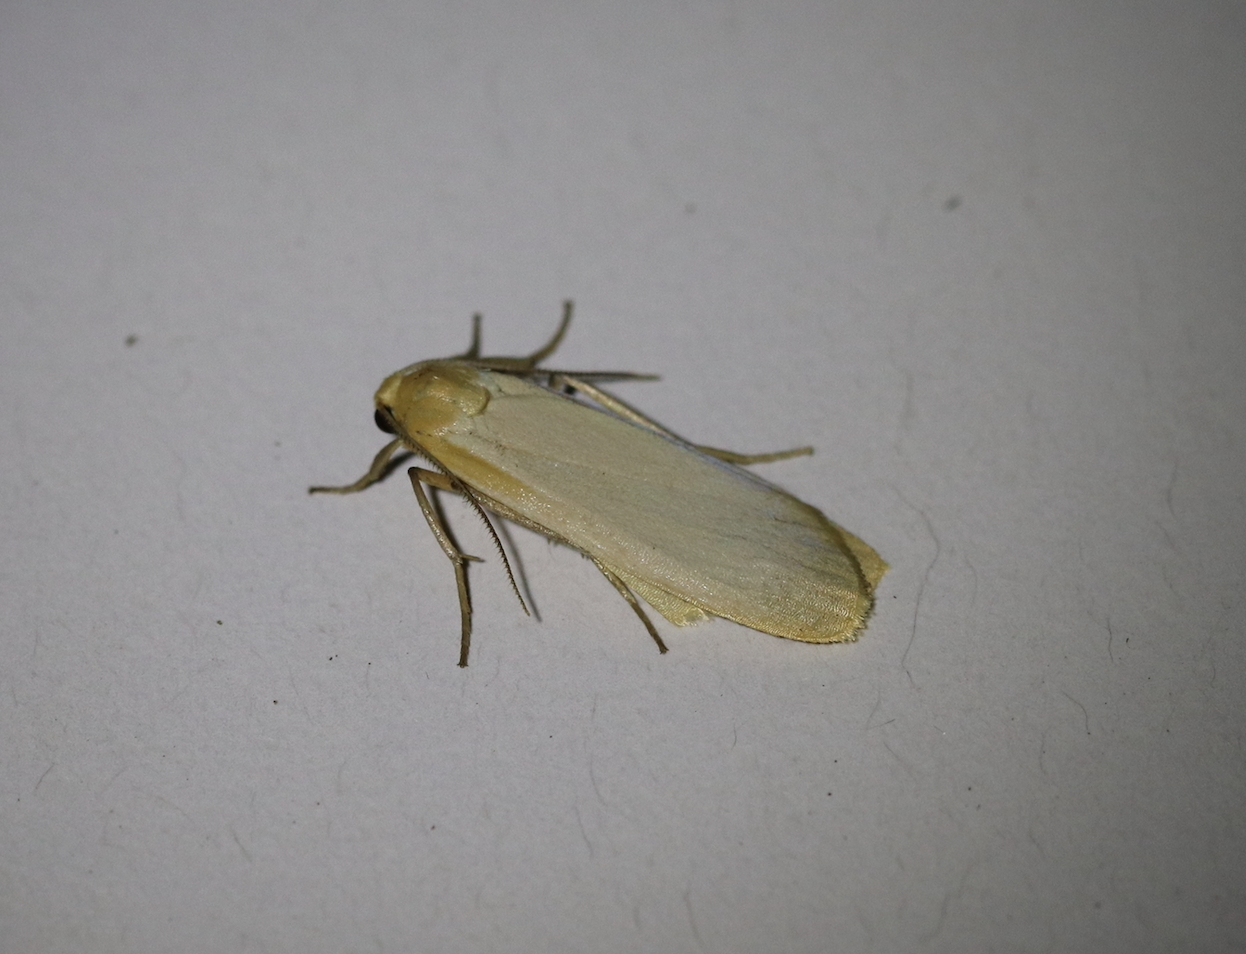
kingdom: Animalia
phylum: Arthropoda
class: Insecta
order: Lepidoptera
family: Erebidae
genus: Katha
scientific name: Katha depressa
